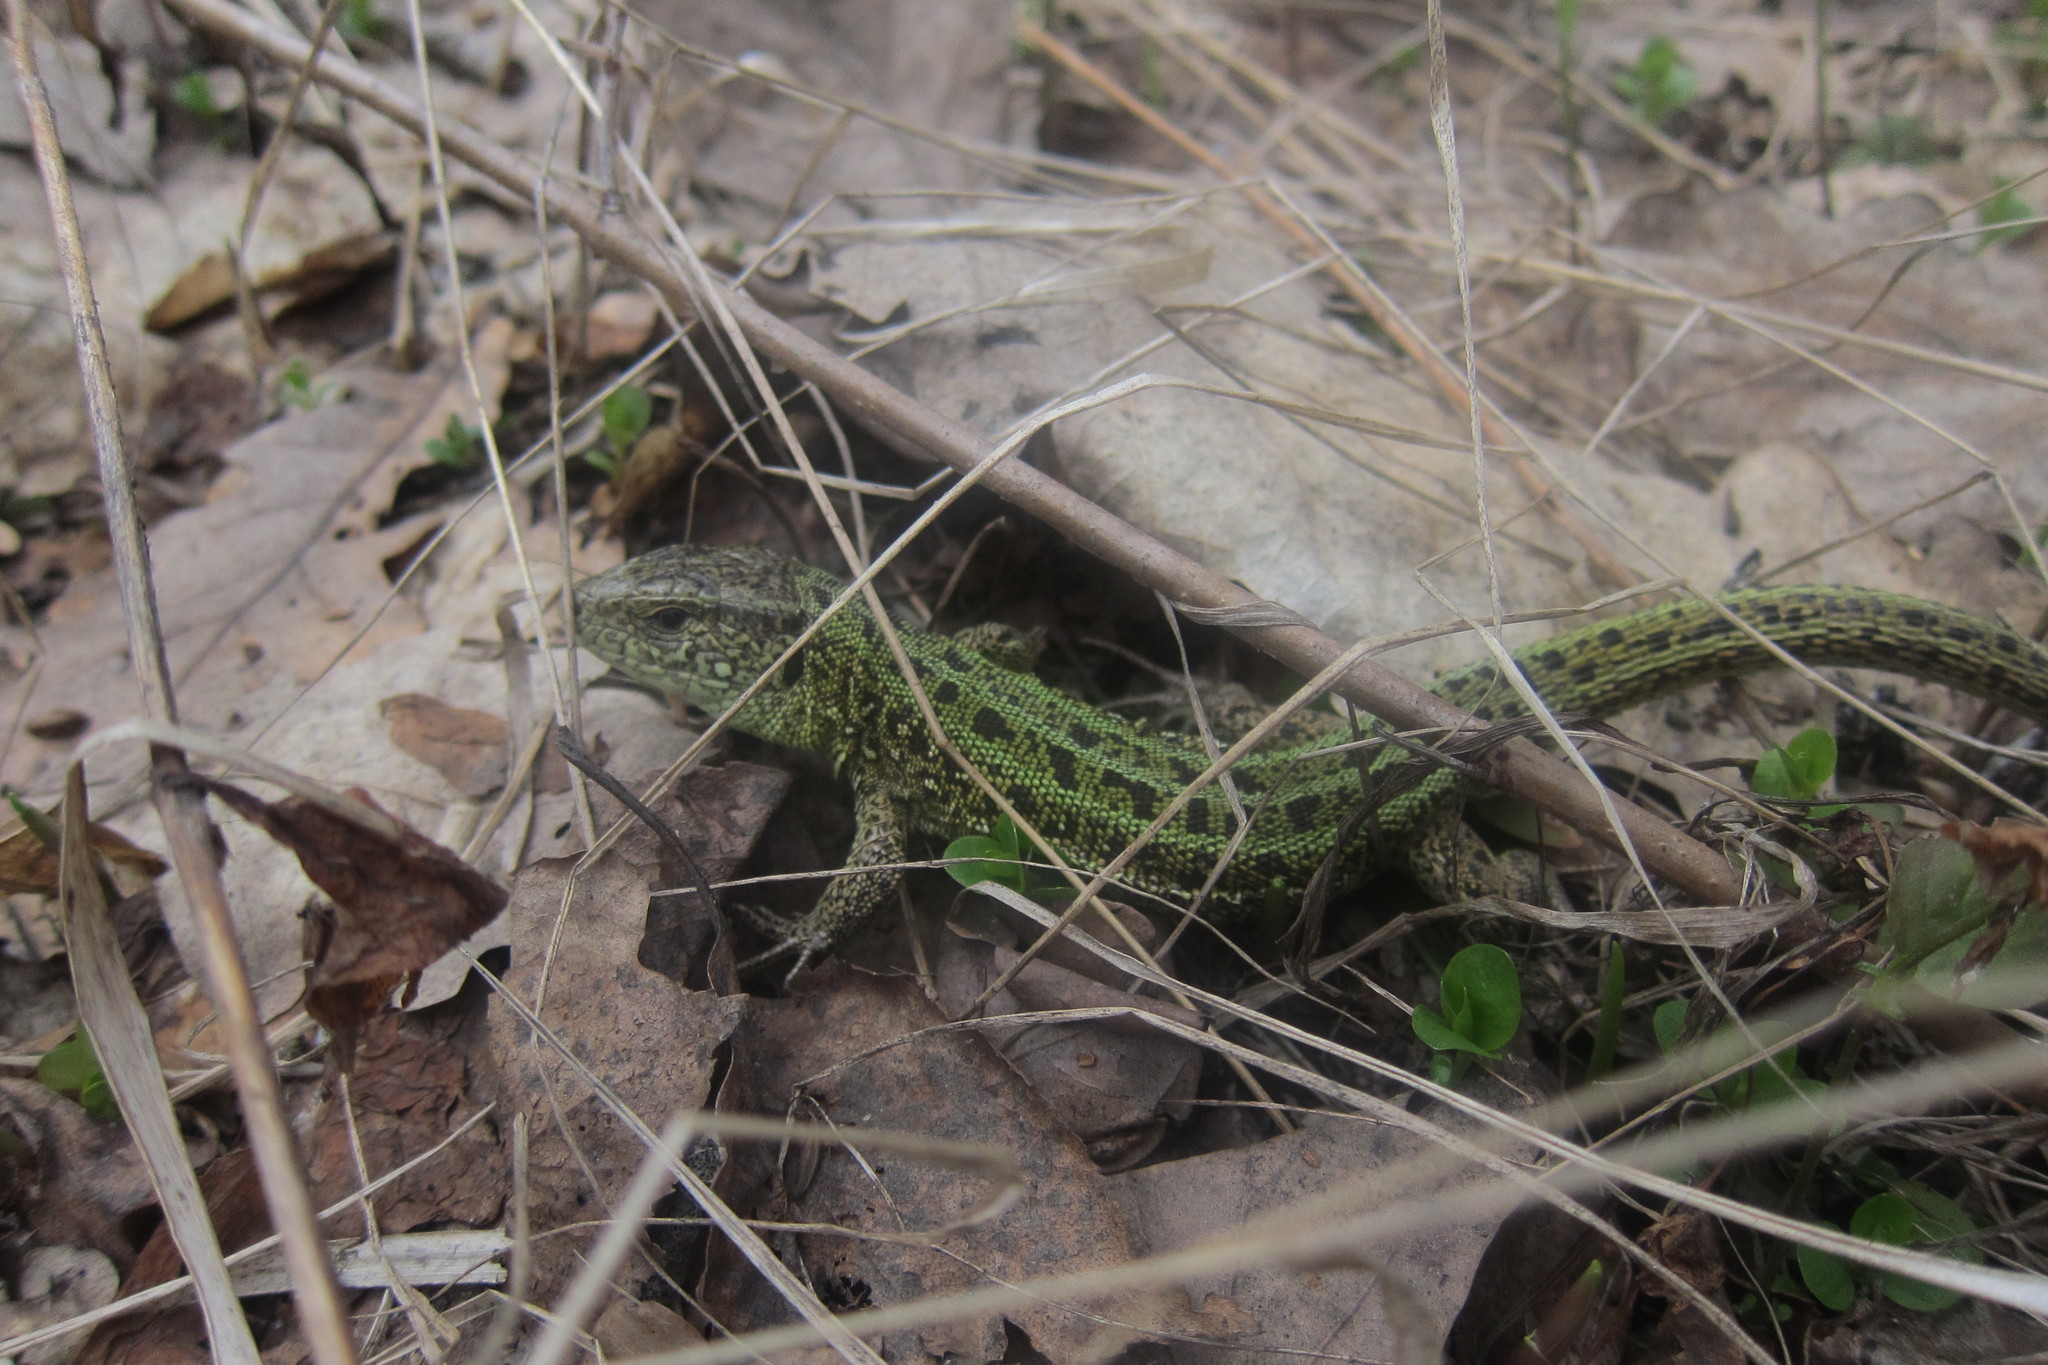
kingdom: Animalia
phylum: Chordata
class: Squamata
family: Lacertidae
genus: Lacerta
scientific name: Lacerta agilis
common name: Sand lizard
